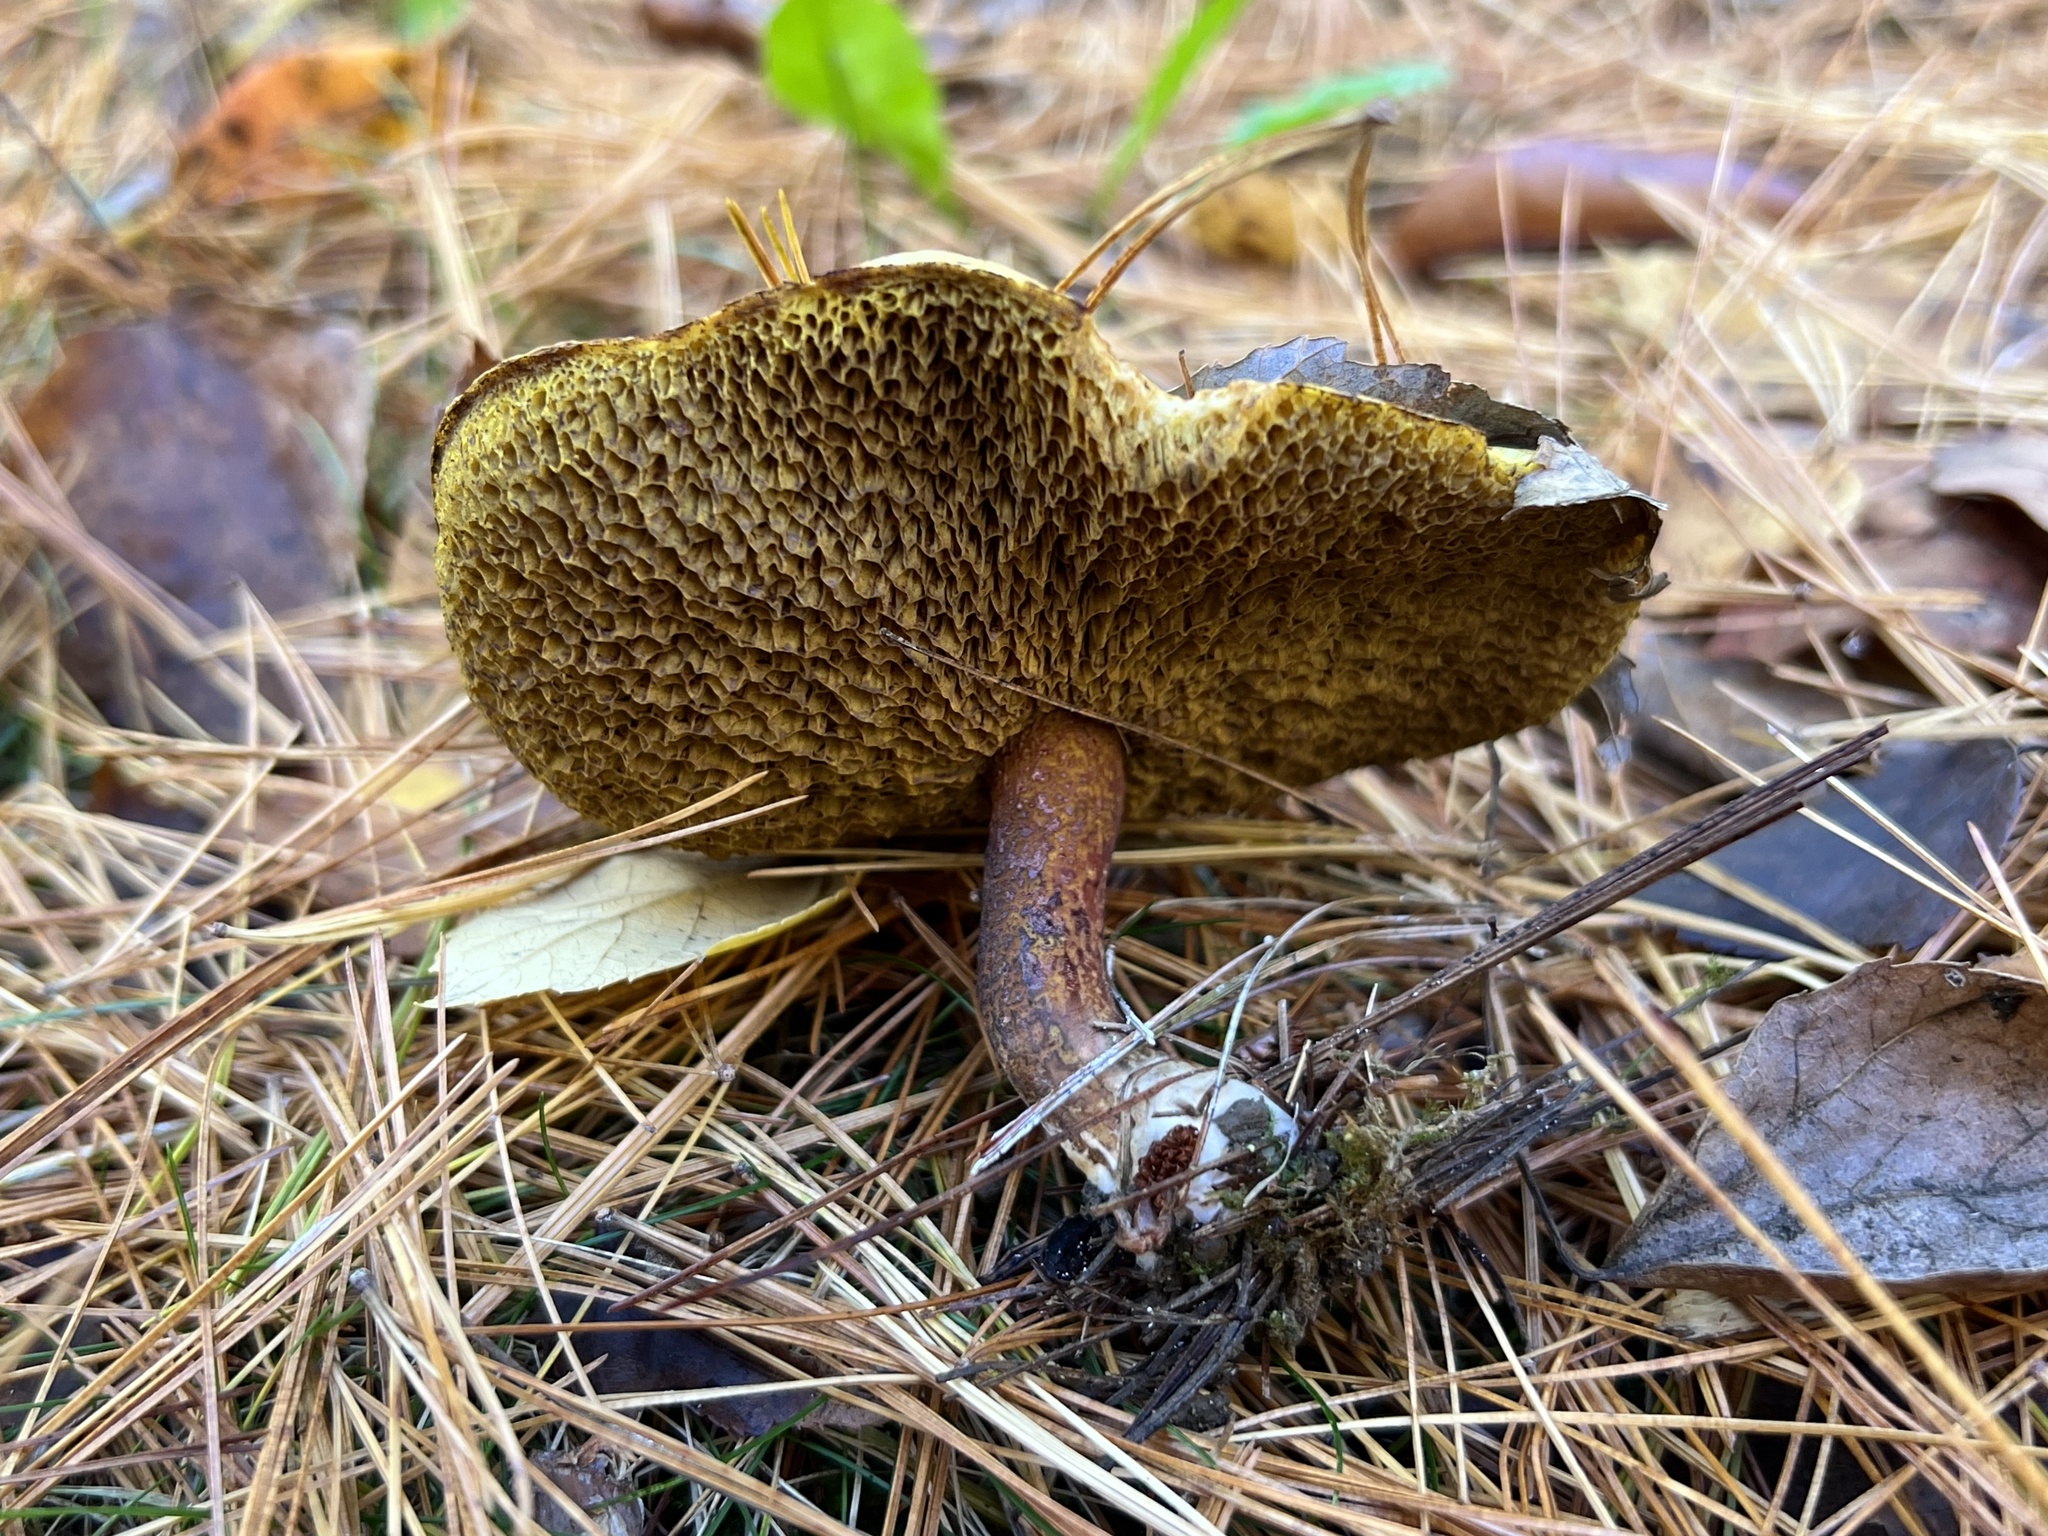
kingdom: Fungi
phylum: Basidiomycota
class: Agaricomycetes
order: Boletales
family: Suillaceae
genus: Suillus
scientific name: Suillus americanus
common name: Chicken fat mushroom
